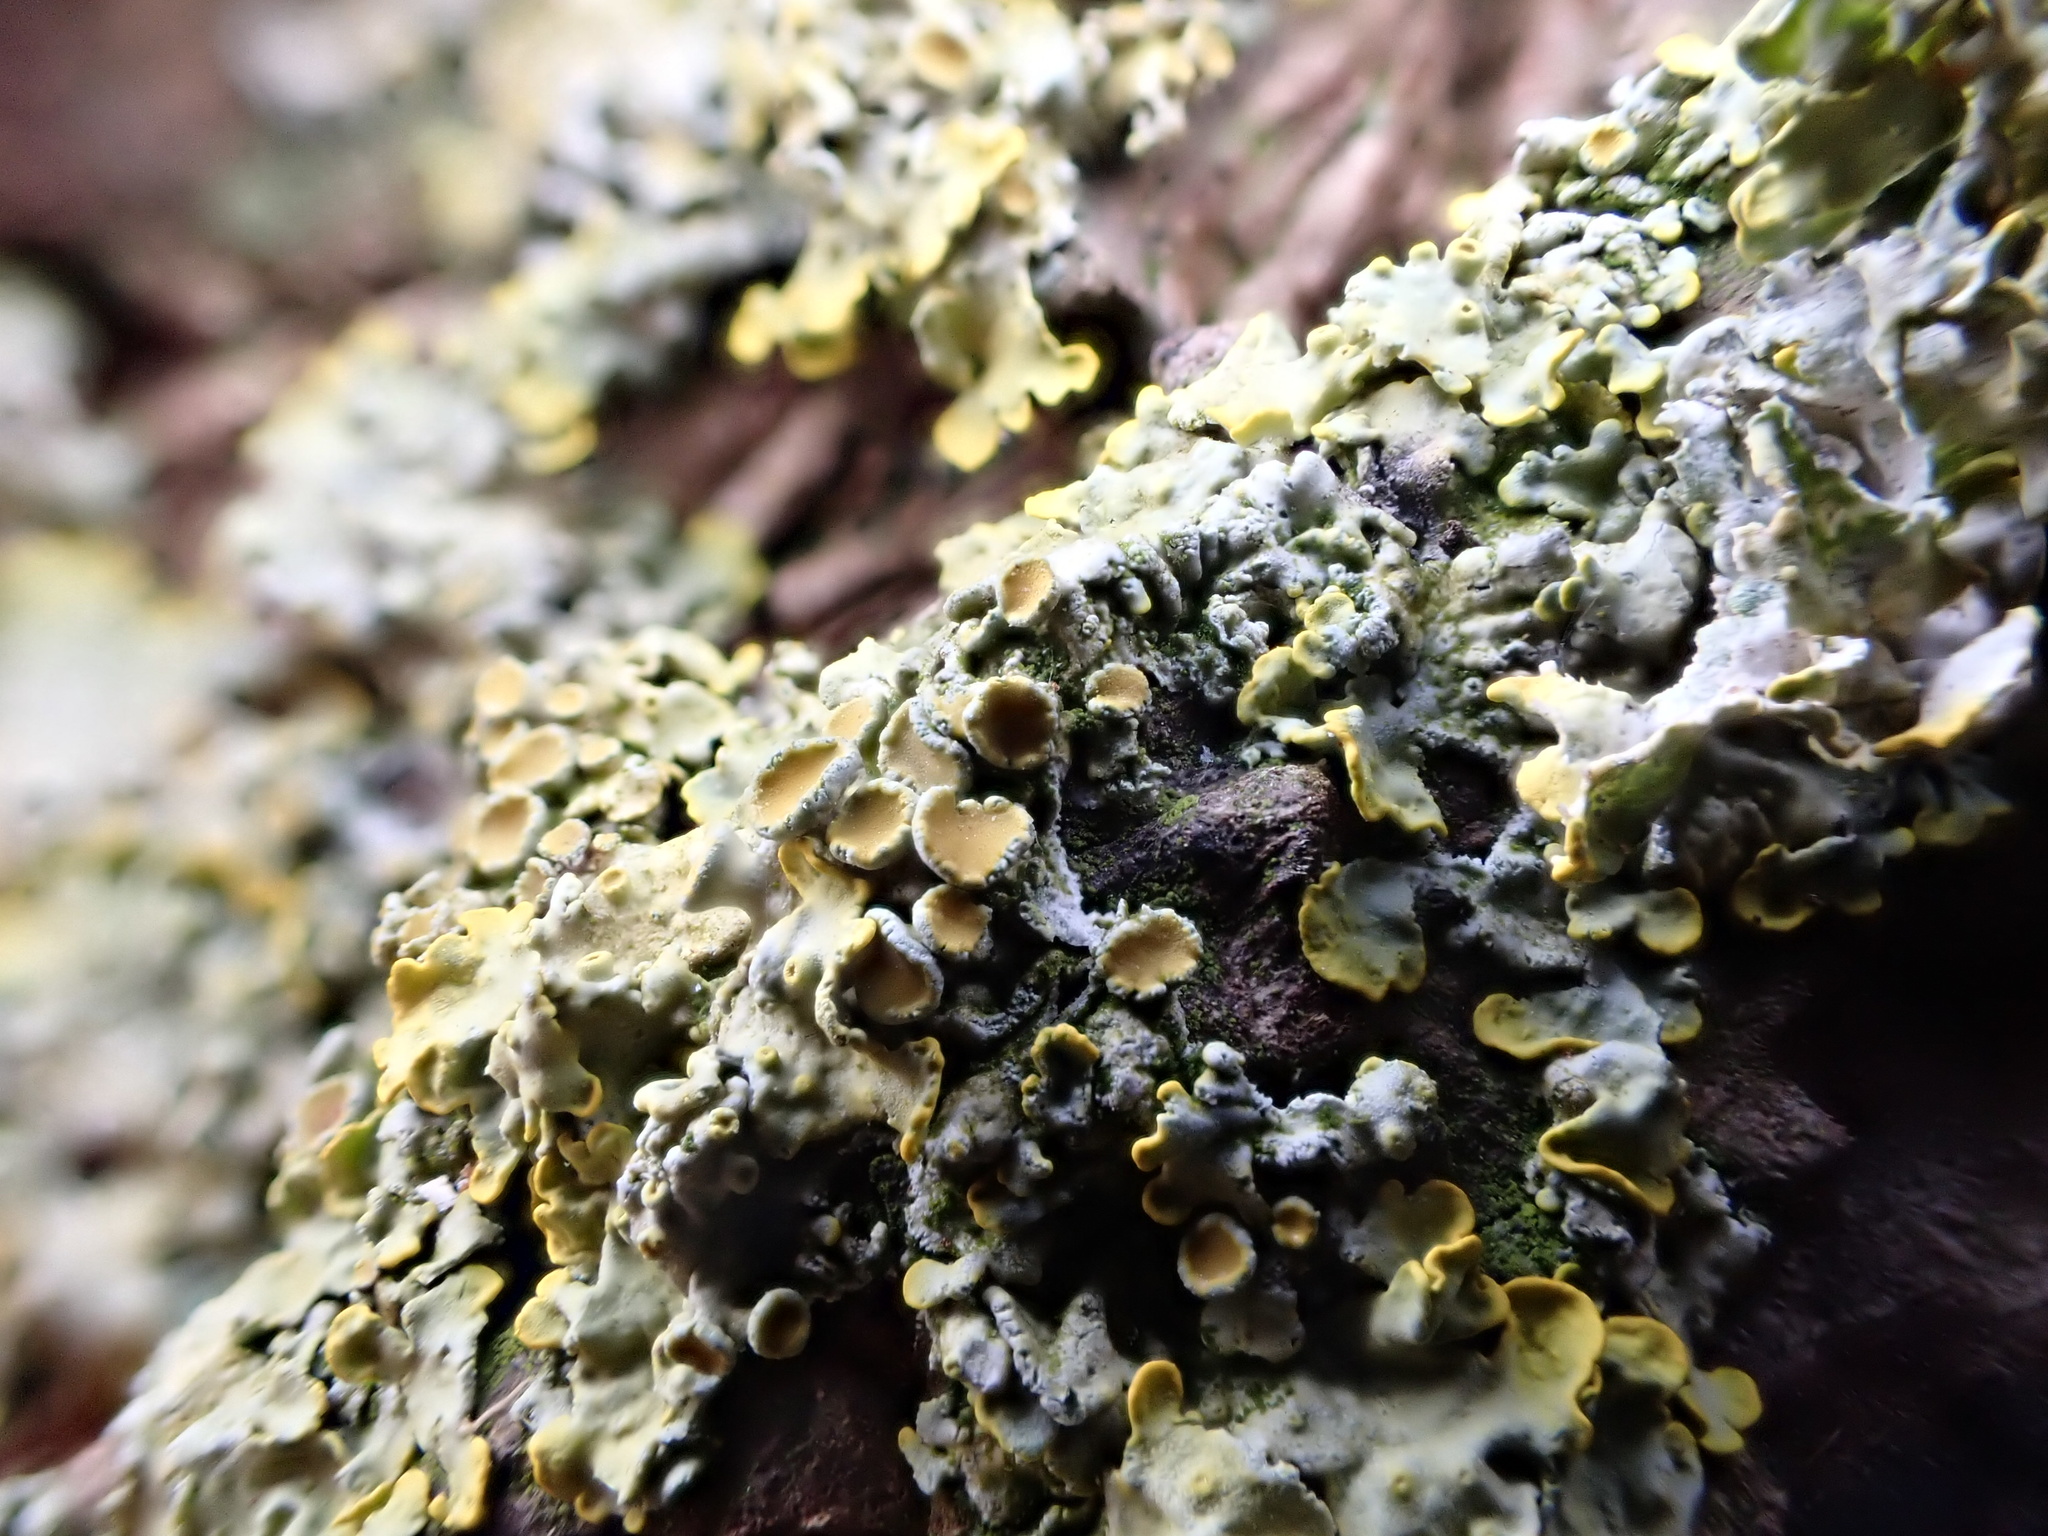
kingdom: Fungi
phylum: Ascomycota
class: Lecanoromycetes
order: Teloschistales
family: Teloschistaceae
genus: Xanthoria
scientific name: Xanthoria parietina
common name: Common orange lichen
